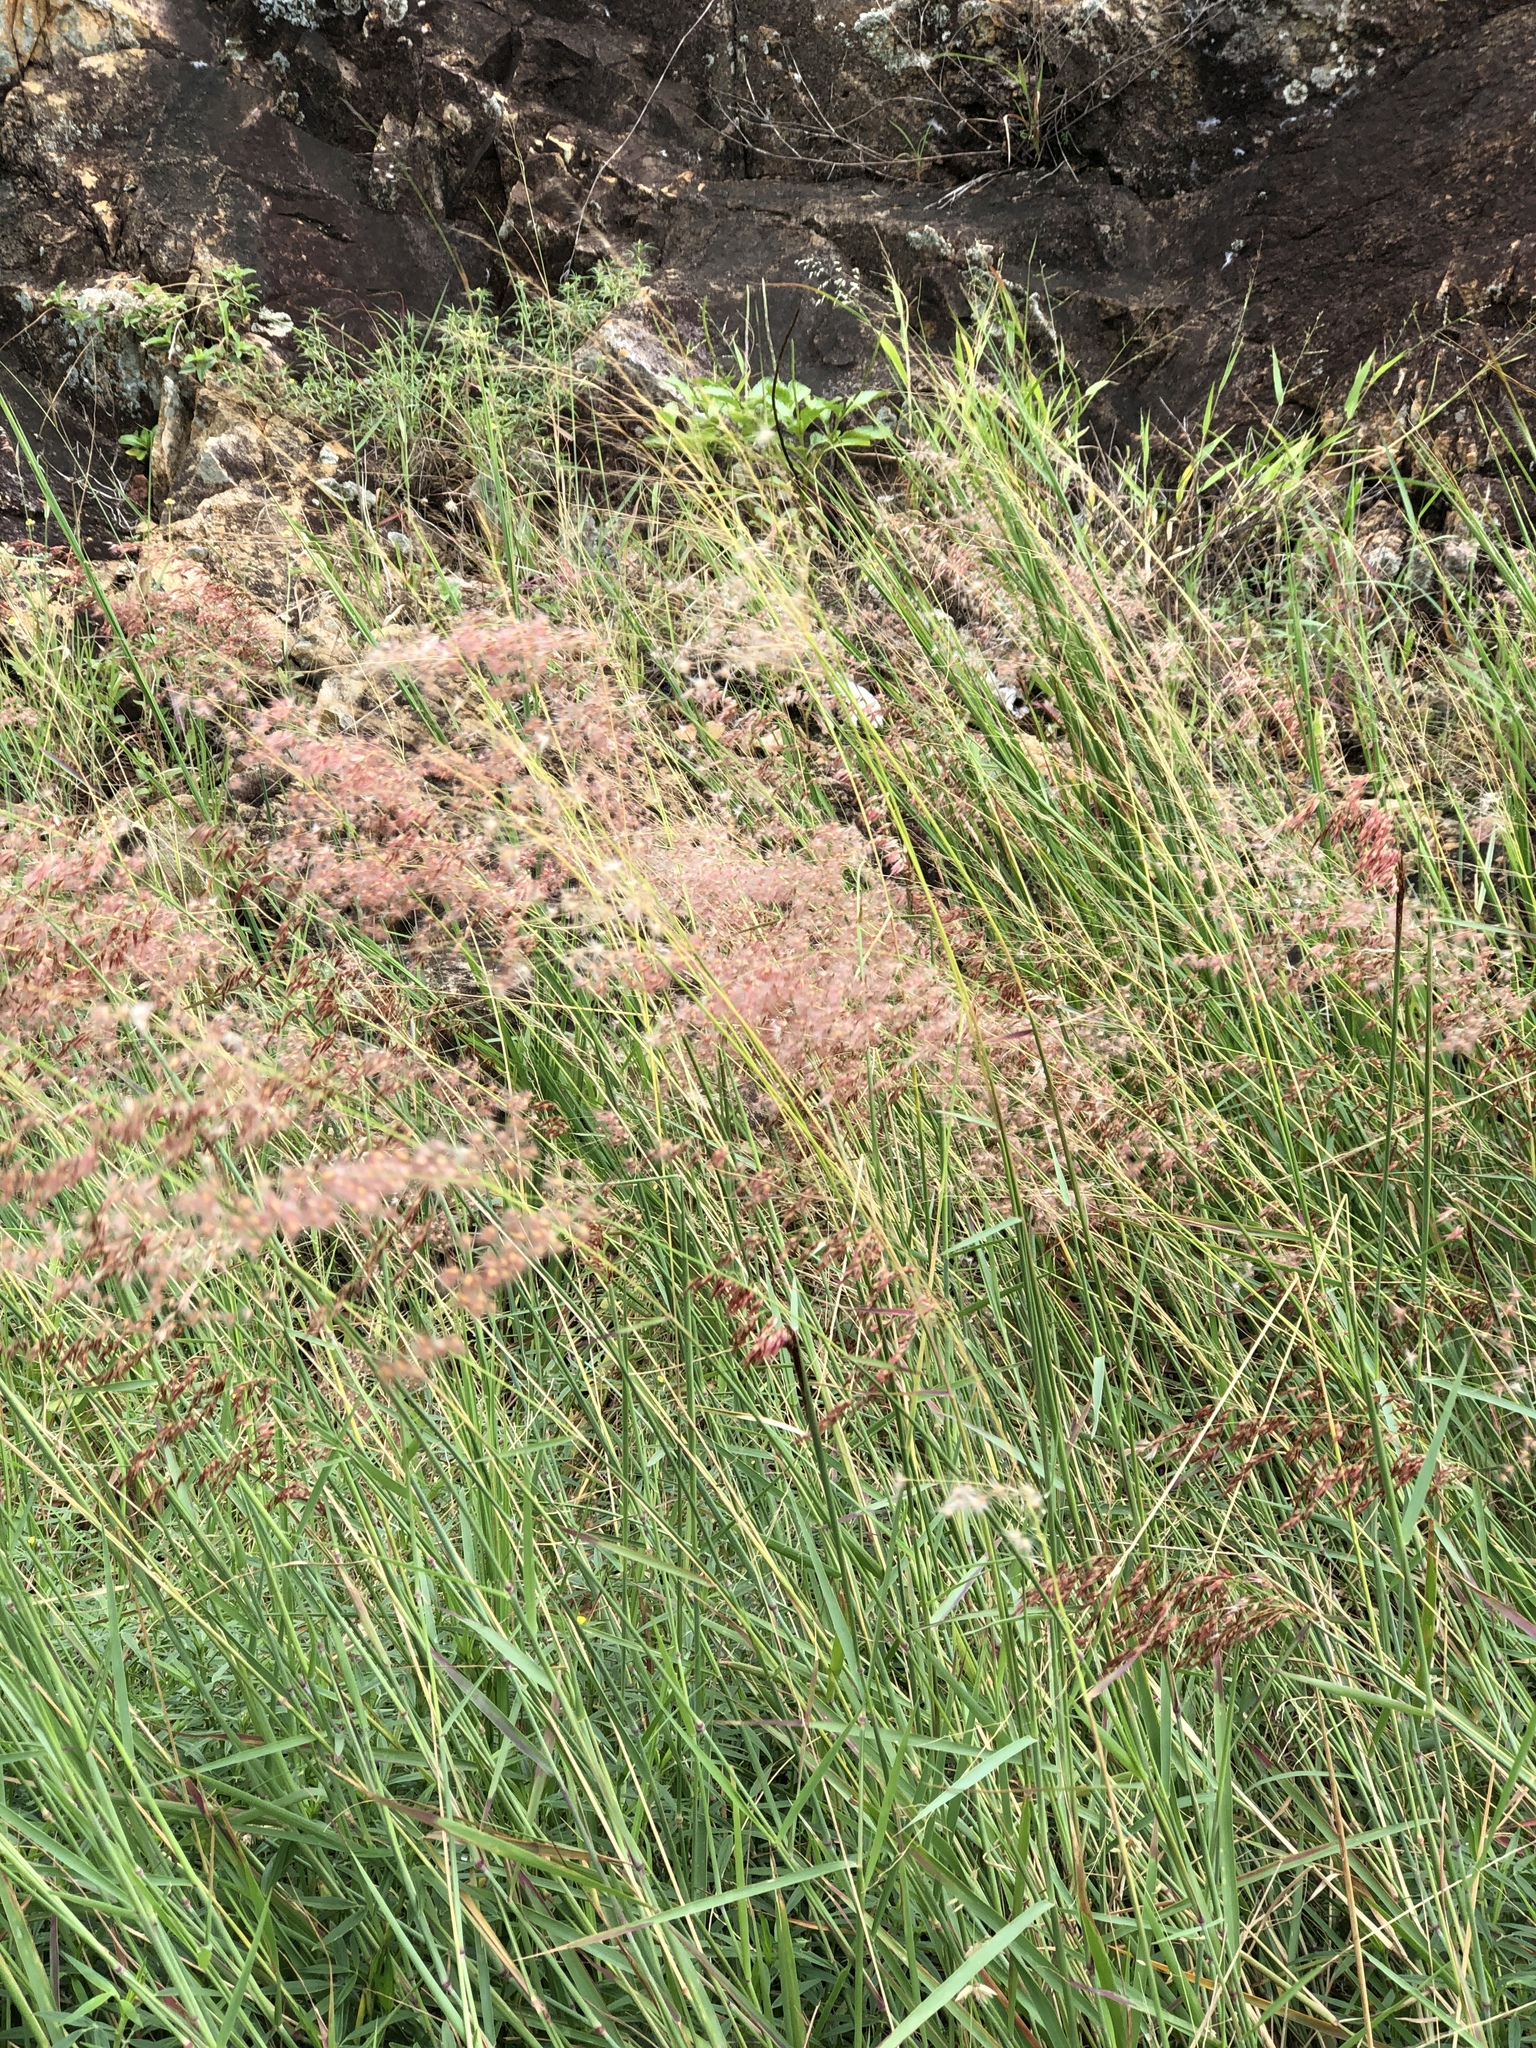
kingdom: Plantae
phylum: Tracheophyta
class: Liliopsida
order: Poales
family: Poaceae
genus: Melinis
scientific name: Melinis repens
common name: Rose natal grass
